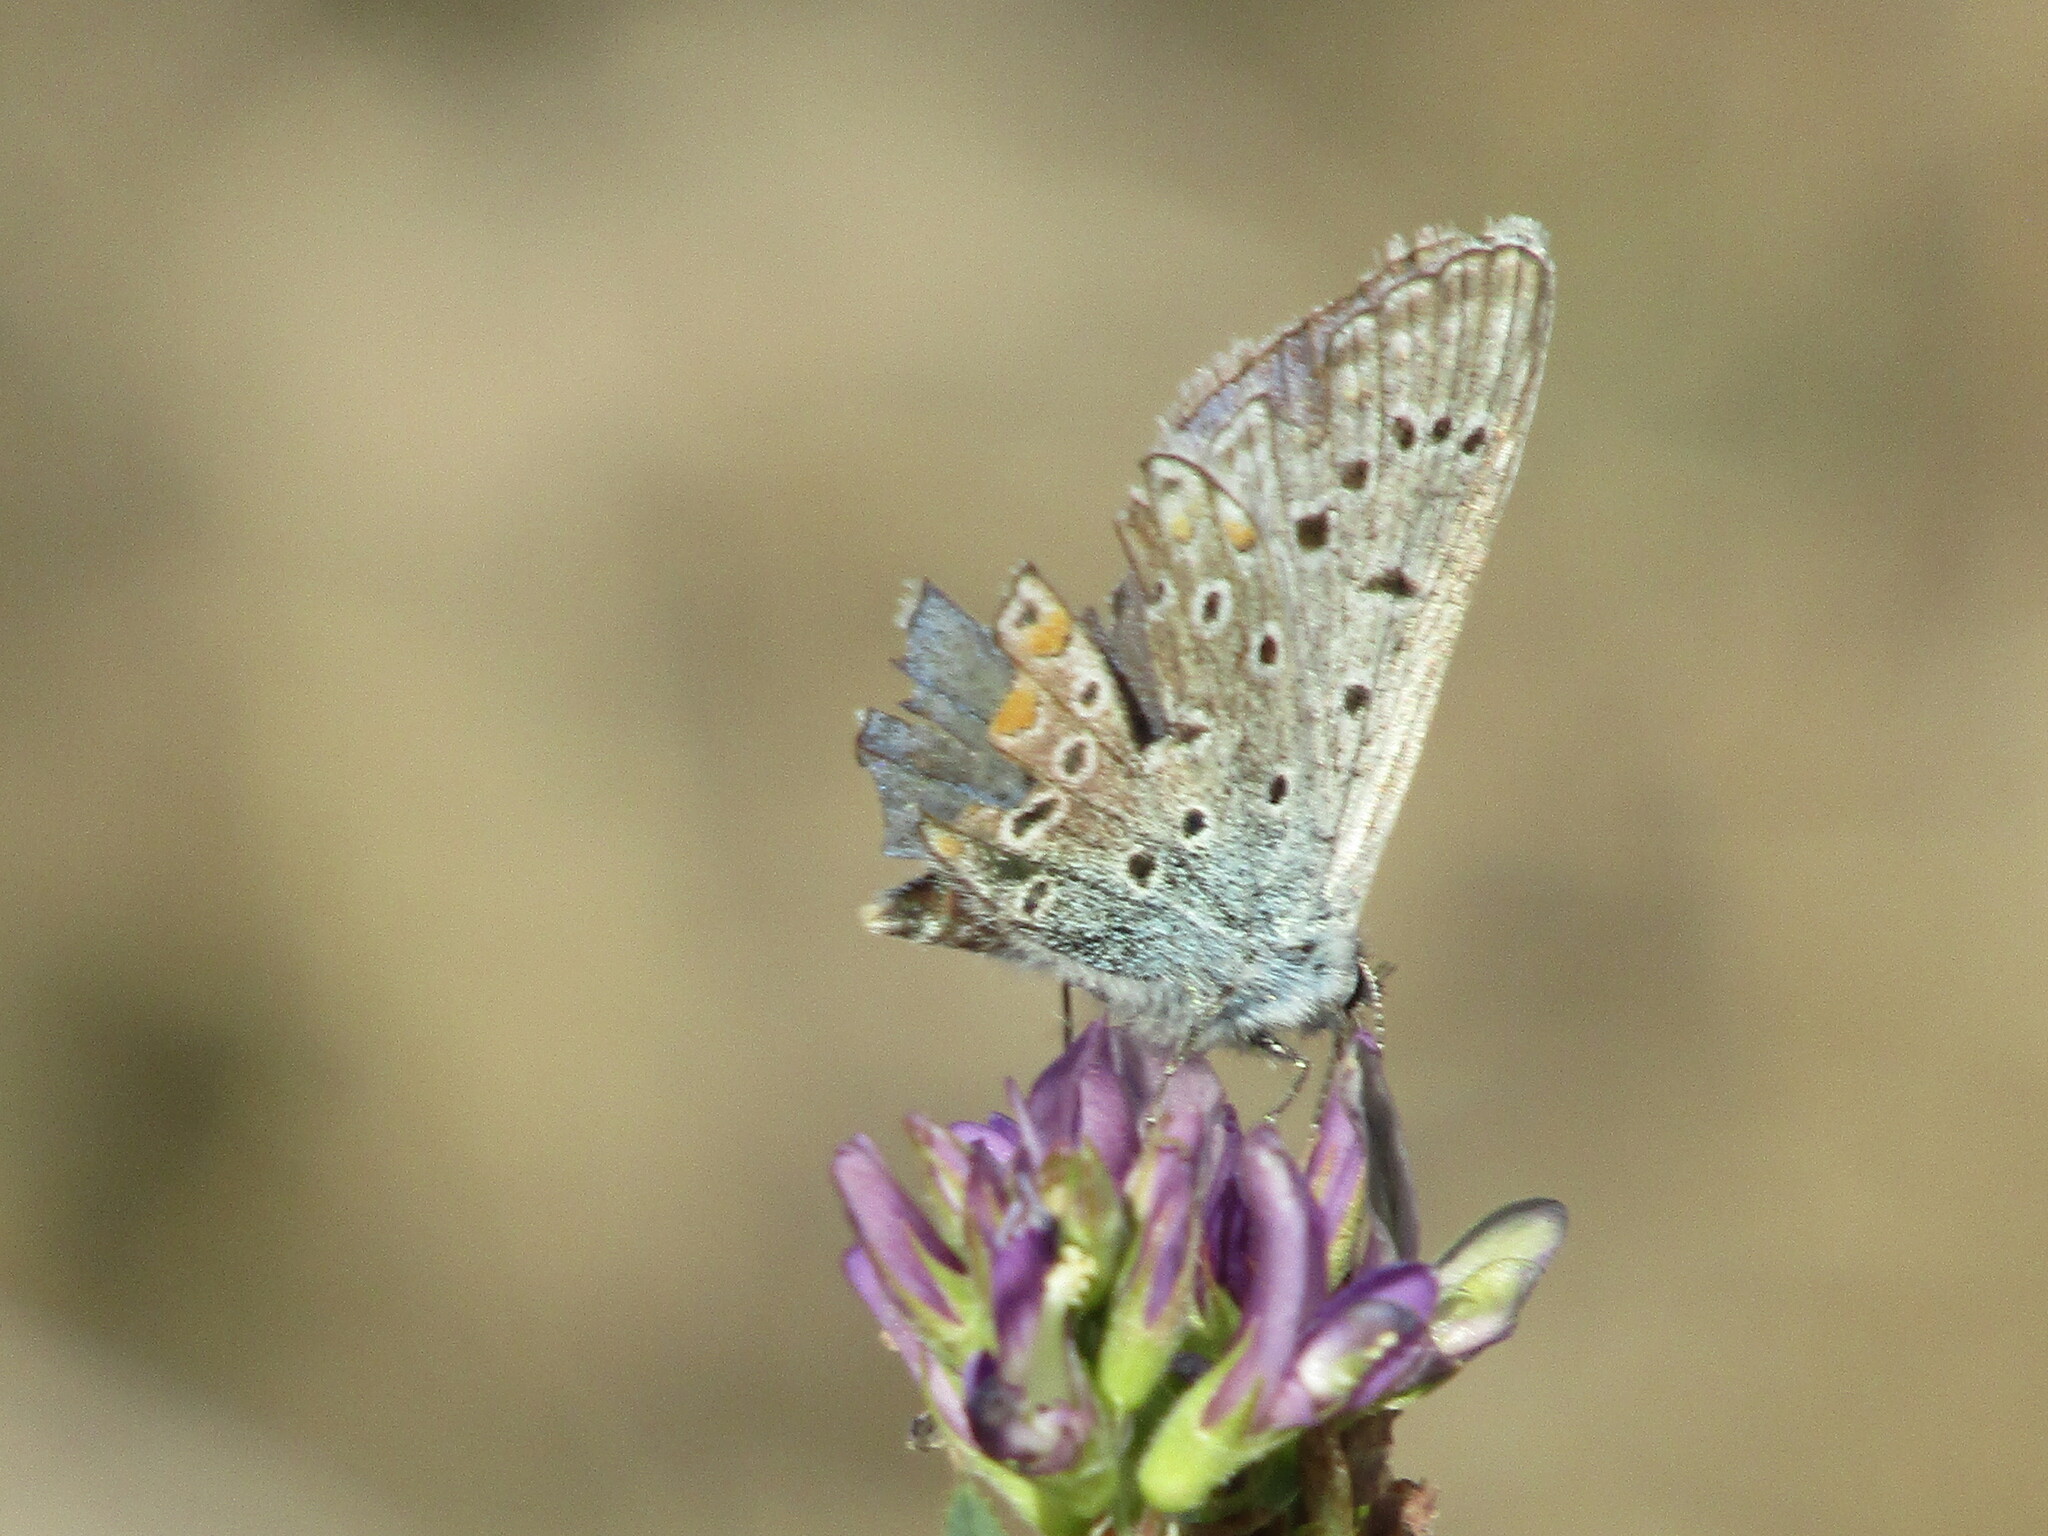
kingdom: Animalia
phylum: Arthropoda
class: Insecta
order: Lepidoptera
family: Lycaenidae
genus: Polyommatus
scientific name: Polyommatus icarus
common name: Common blue
